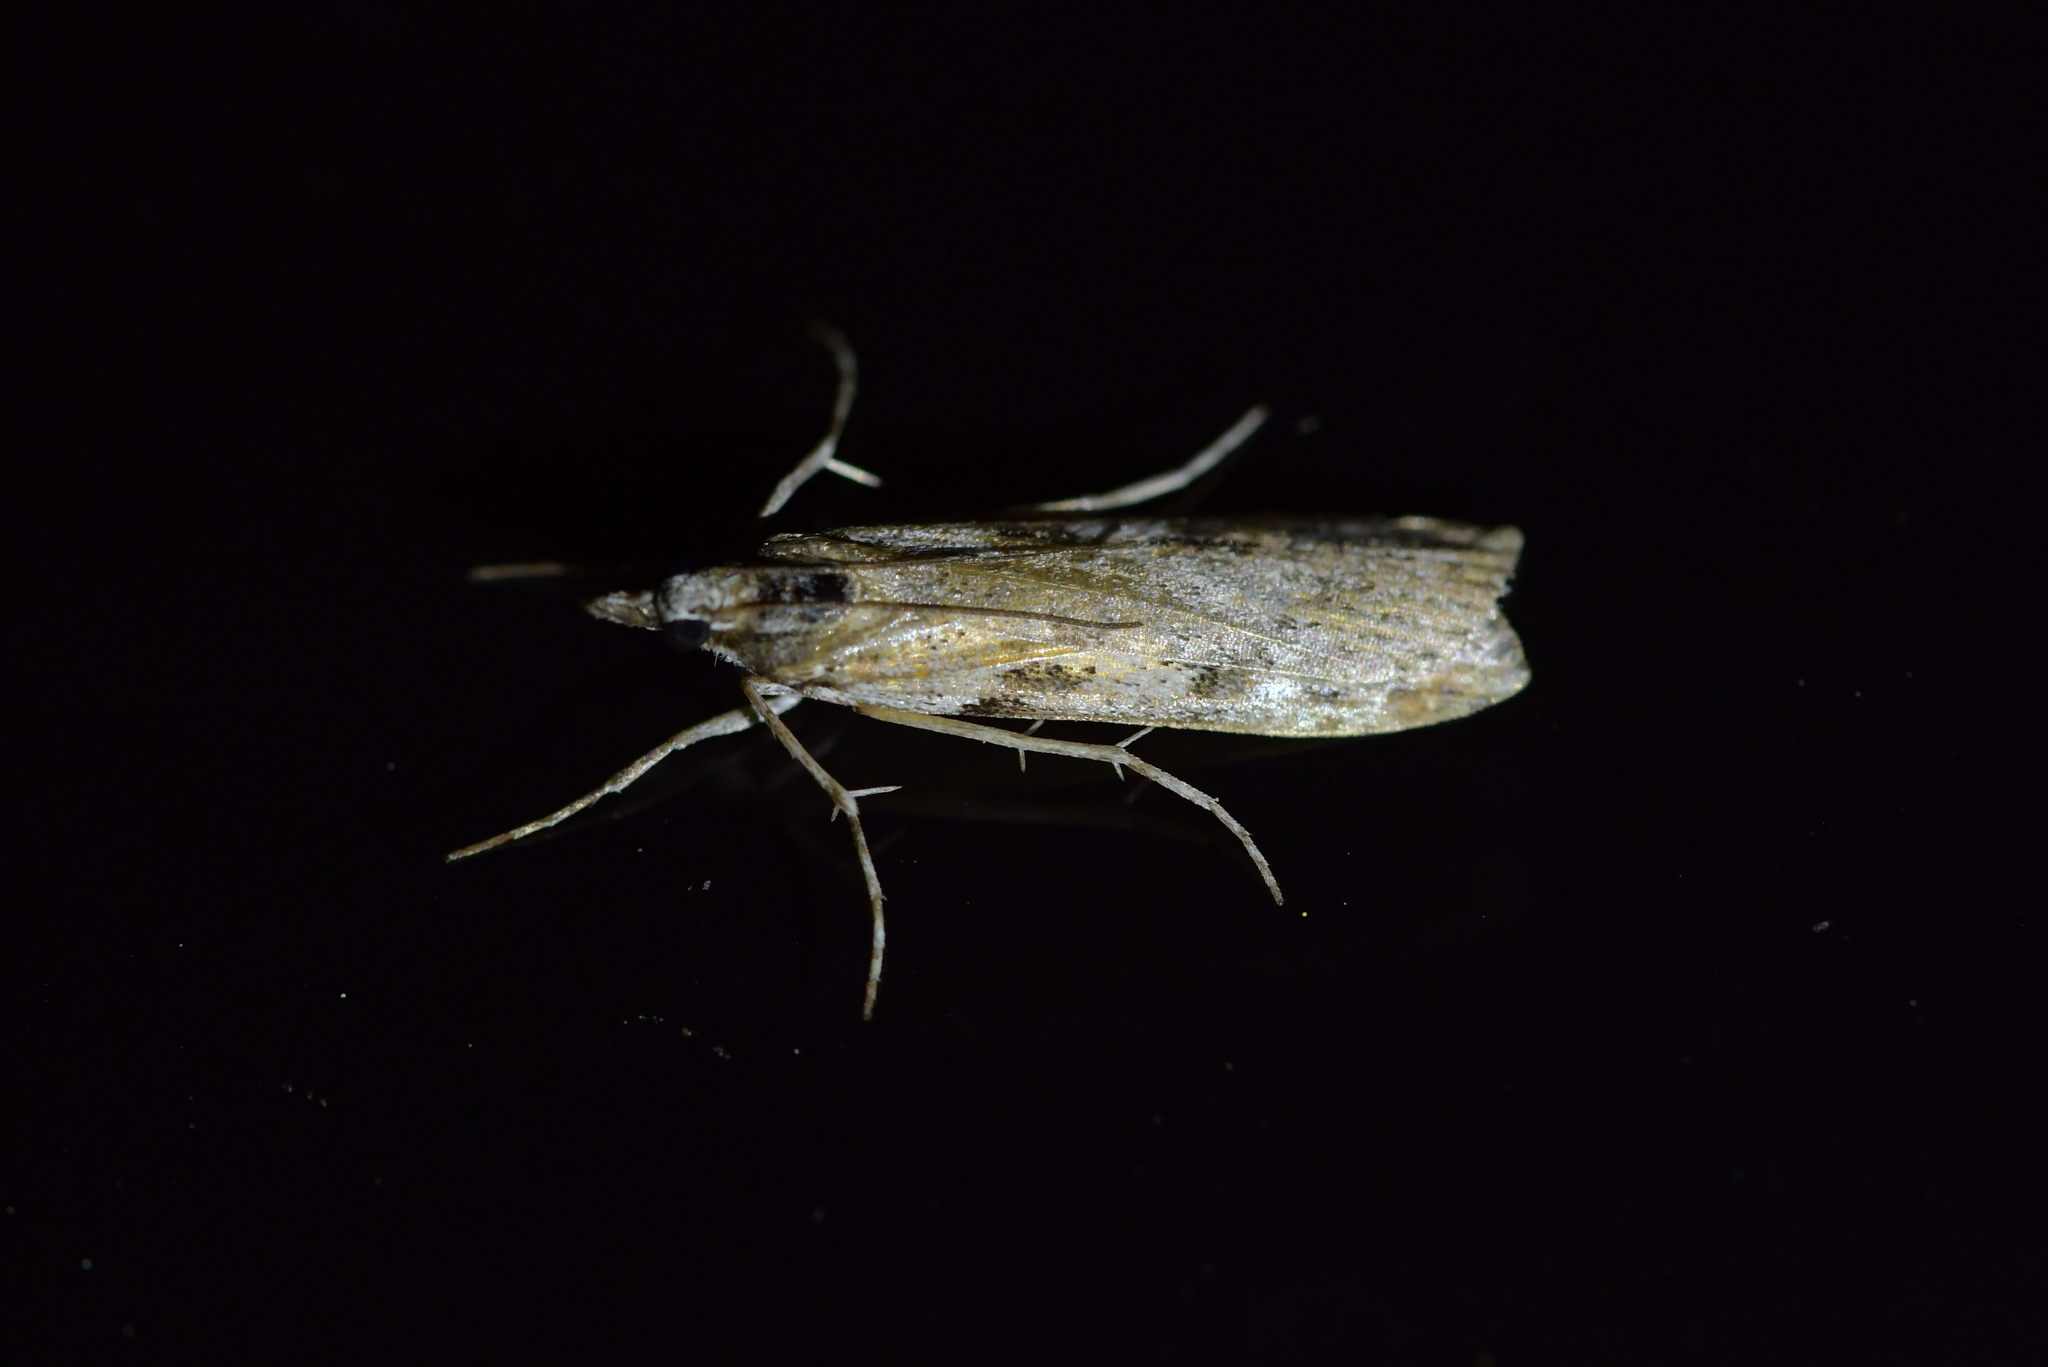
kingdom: Animalia
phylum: Arthropoda
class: Insecta
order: Lepidoptera
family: Crambidae
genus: Scoparia
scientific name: Scoparia halopis
